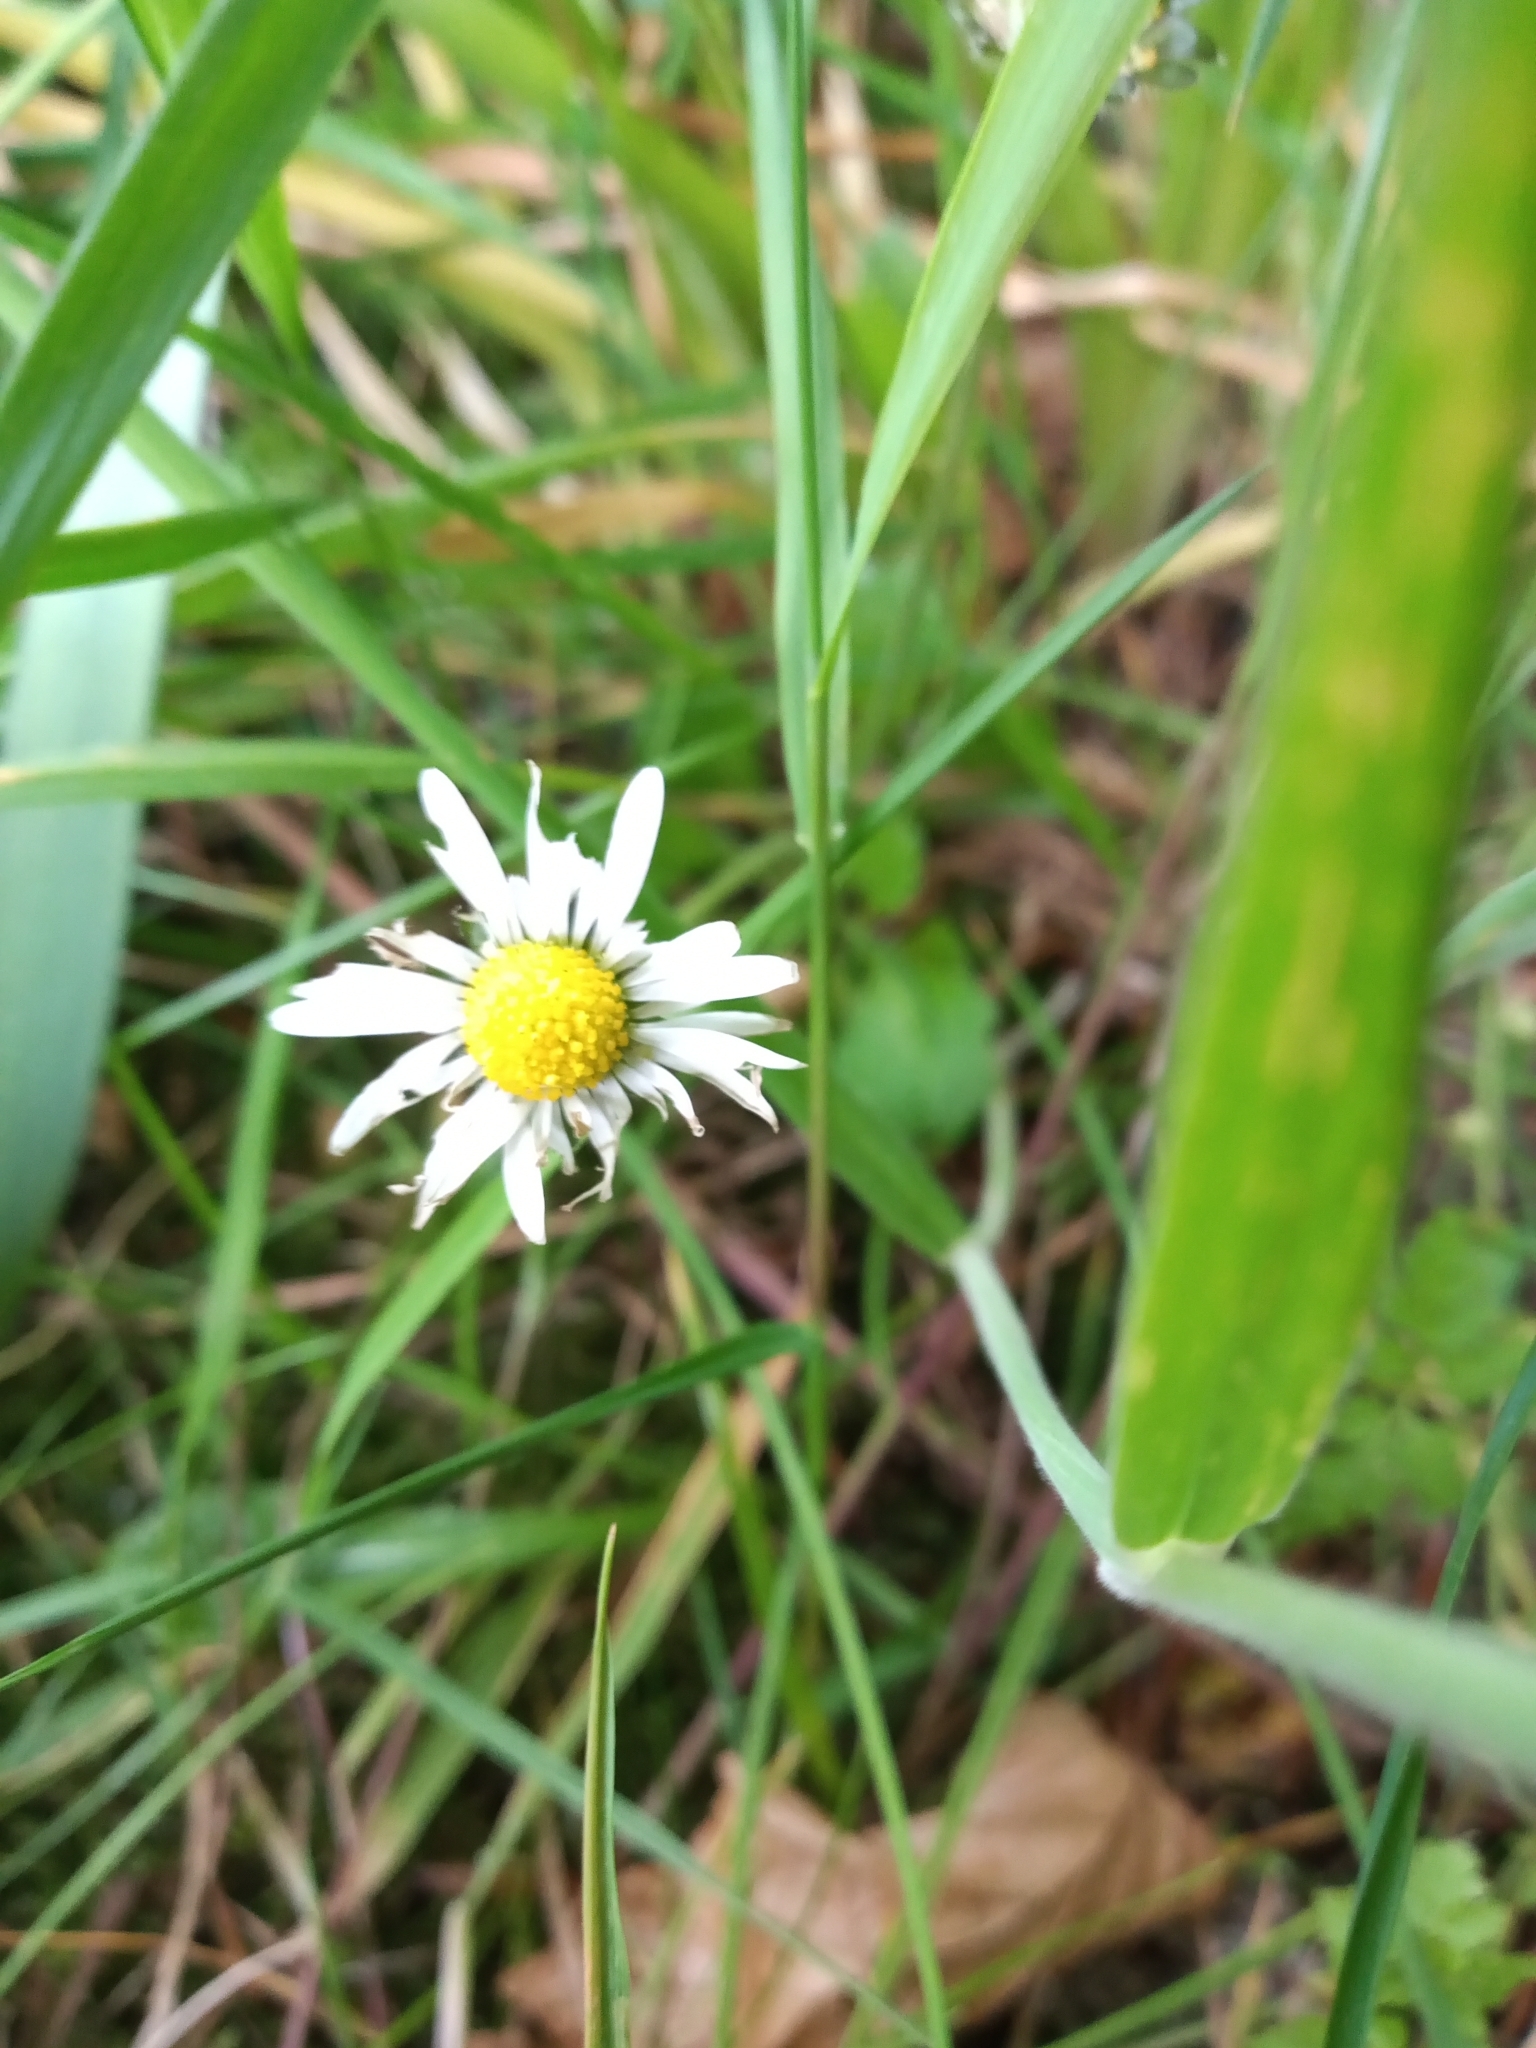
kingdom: Plantae
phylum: Tracheophyta
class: Magnoliopsida
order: Asterales
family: Asteraceae
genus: Bellis
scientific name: Bellis perennis
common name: Lawndaisy
